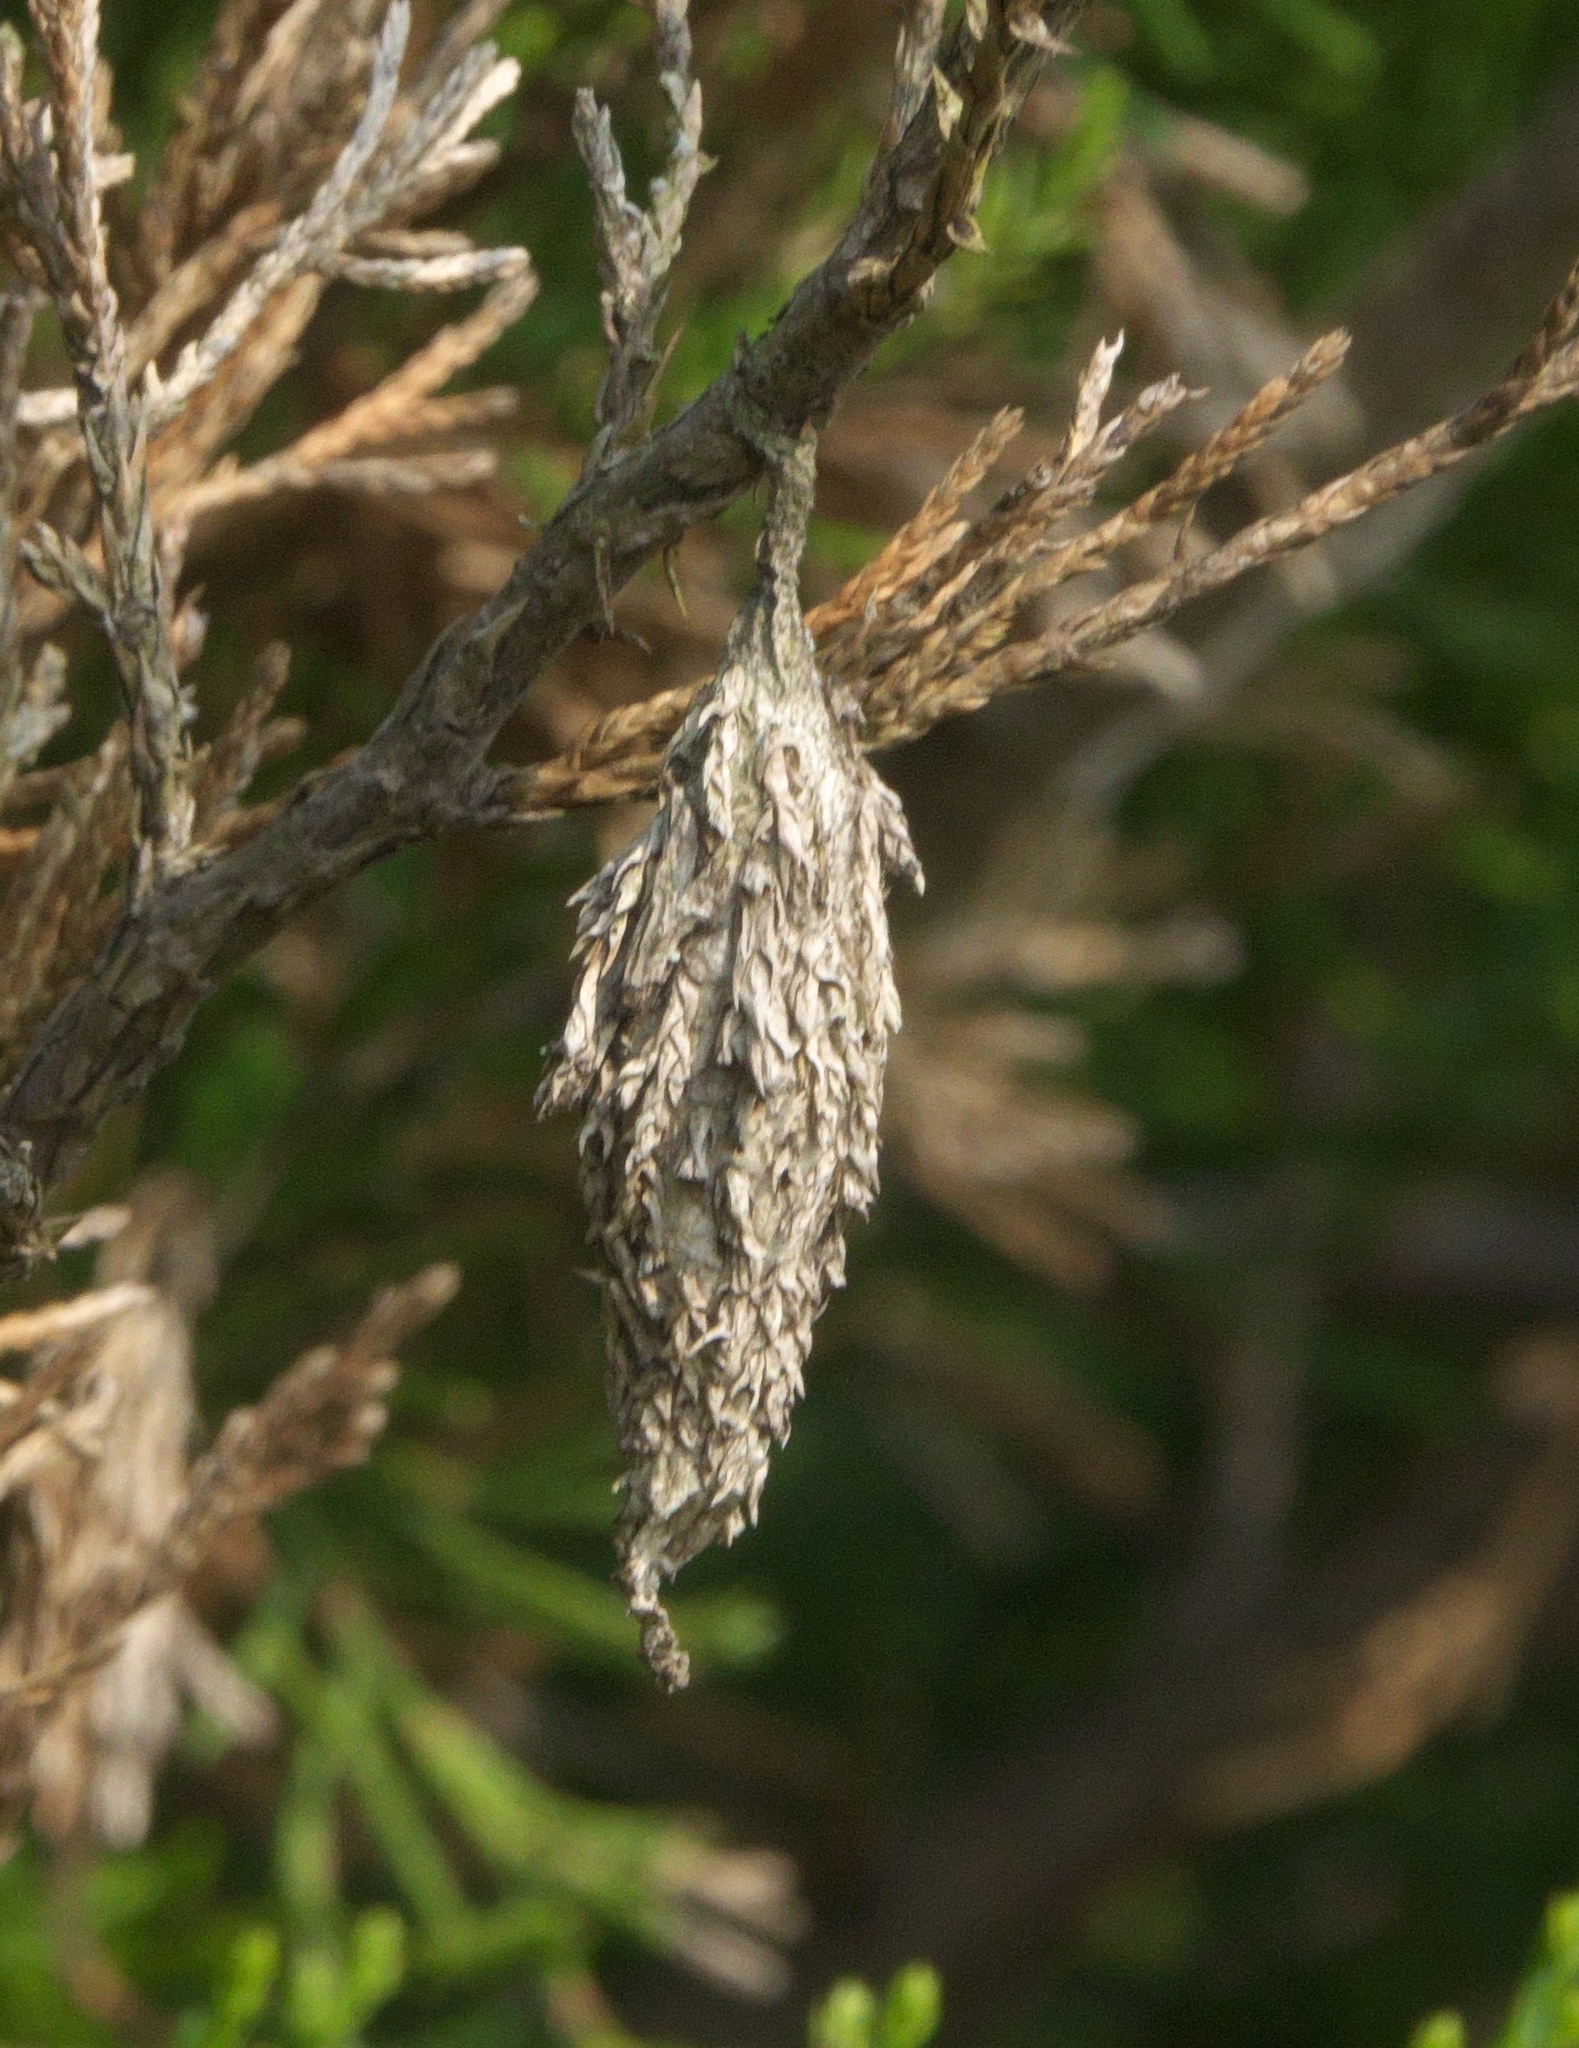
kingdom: Animalia
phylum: Arthropoda
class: Insecta
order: Lepidoptera
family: Psychidae
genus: Thyridopteryx
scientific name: Thyridopteryx ephemeraeformis
